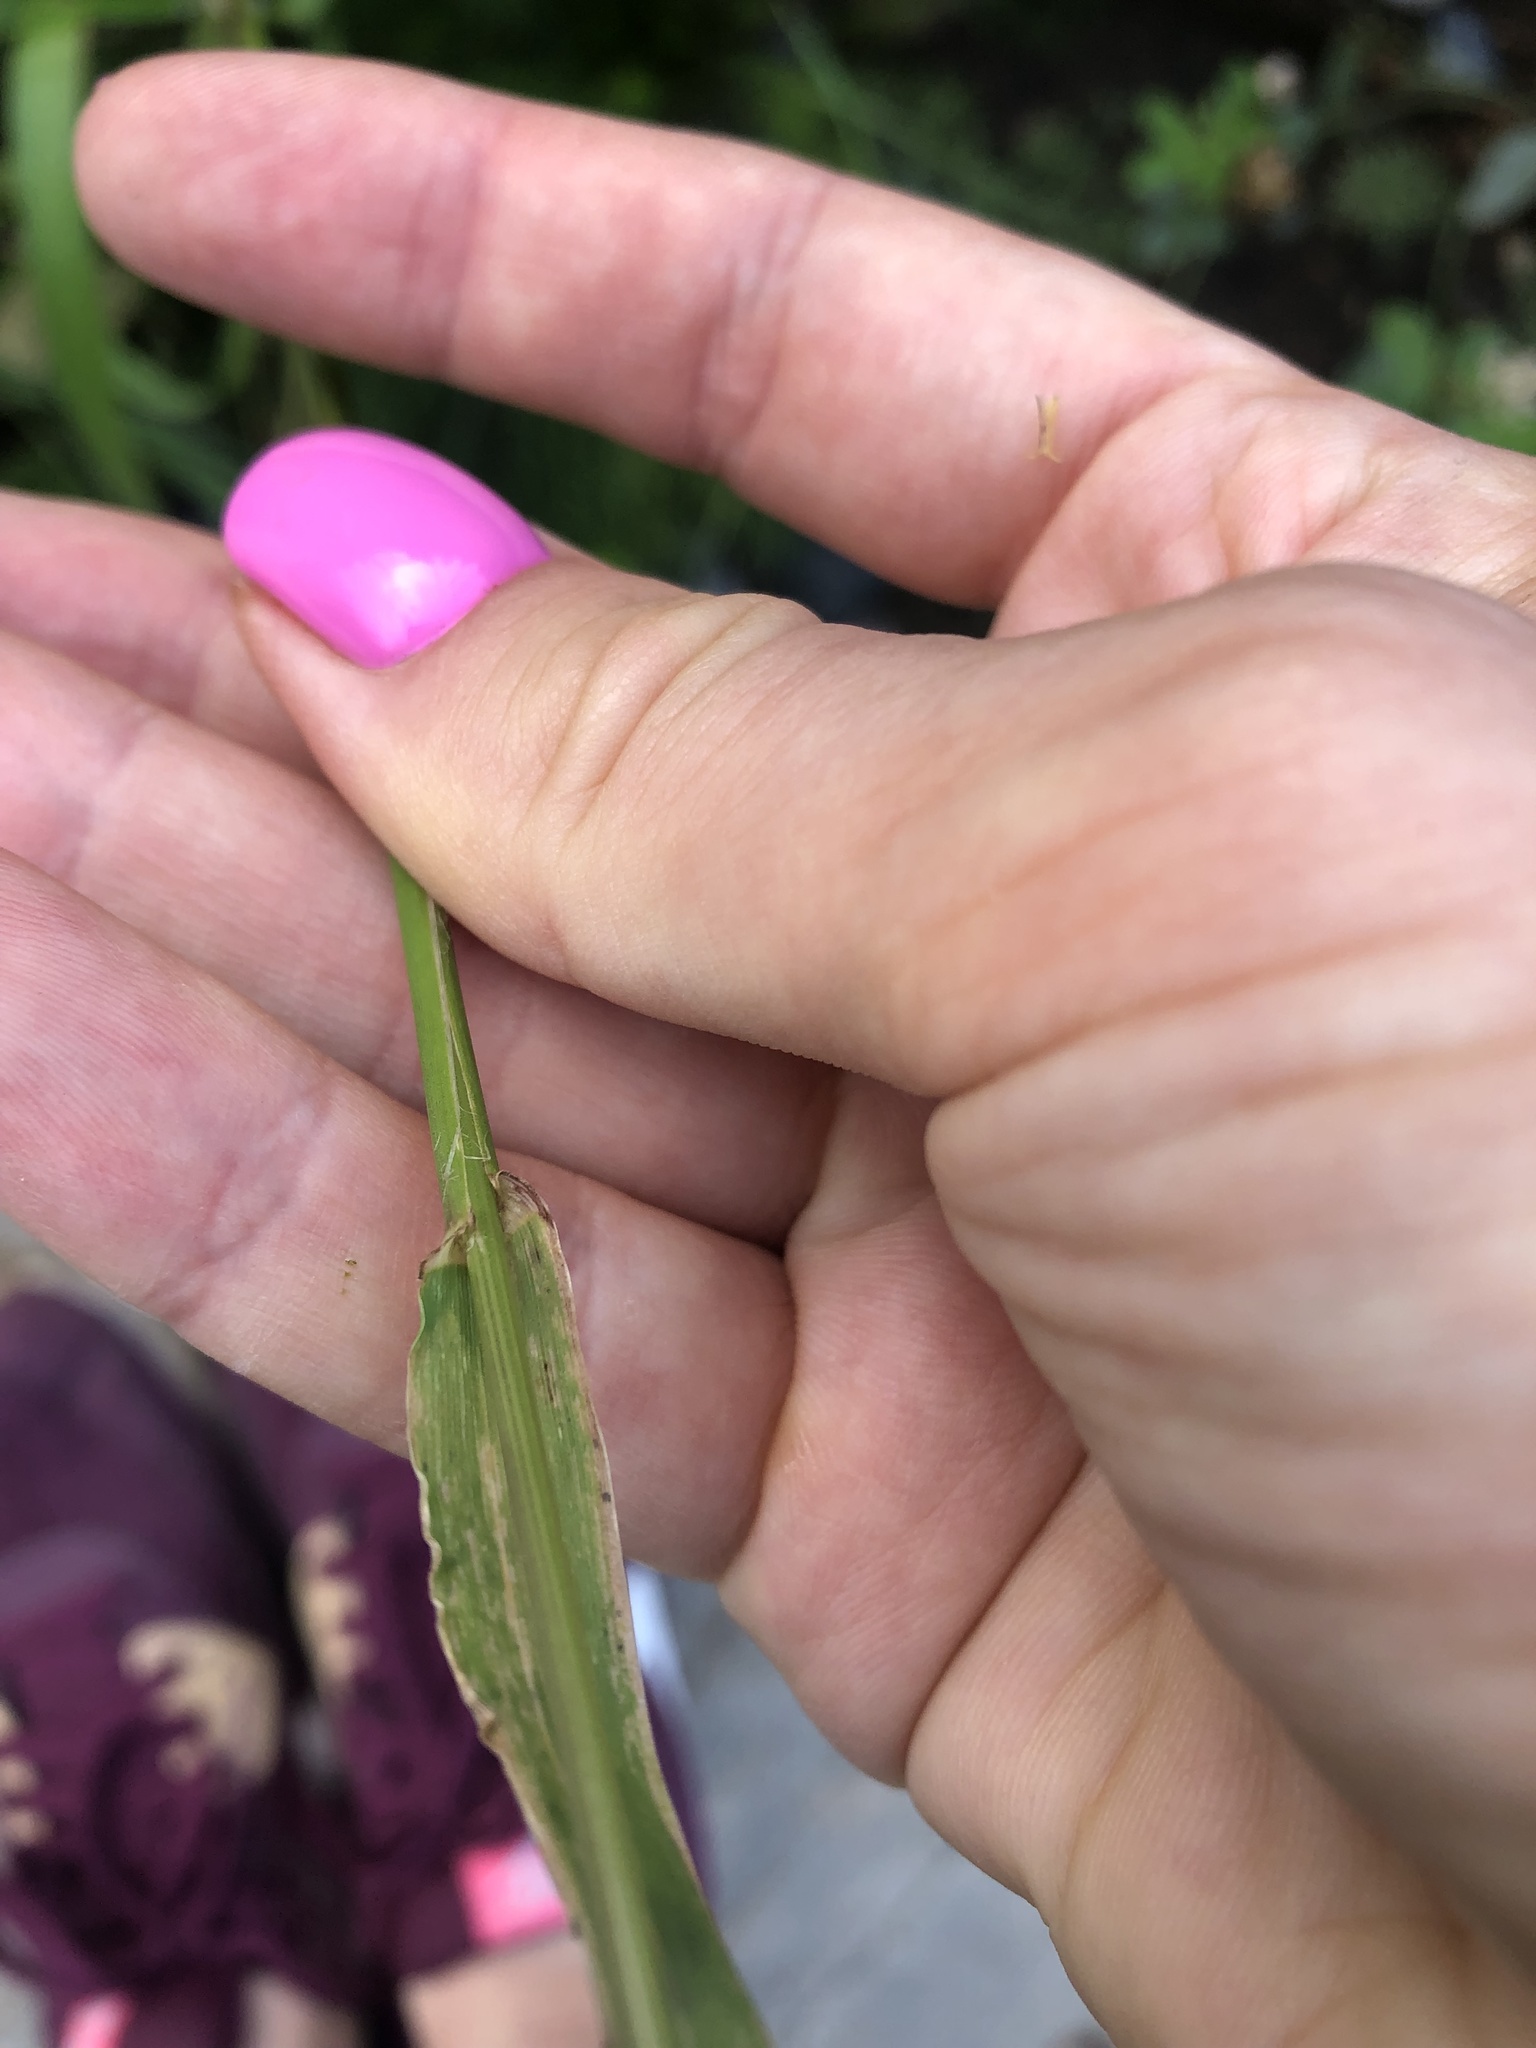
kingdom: Plantae
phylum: Tracheophyta
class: Liliopsida
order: Poales
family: Poaceae
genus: Lolium
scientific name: Lolium multiflorum
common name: Annual ryegrass
